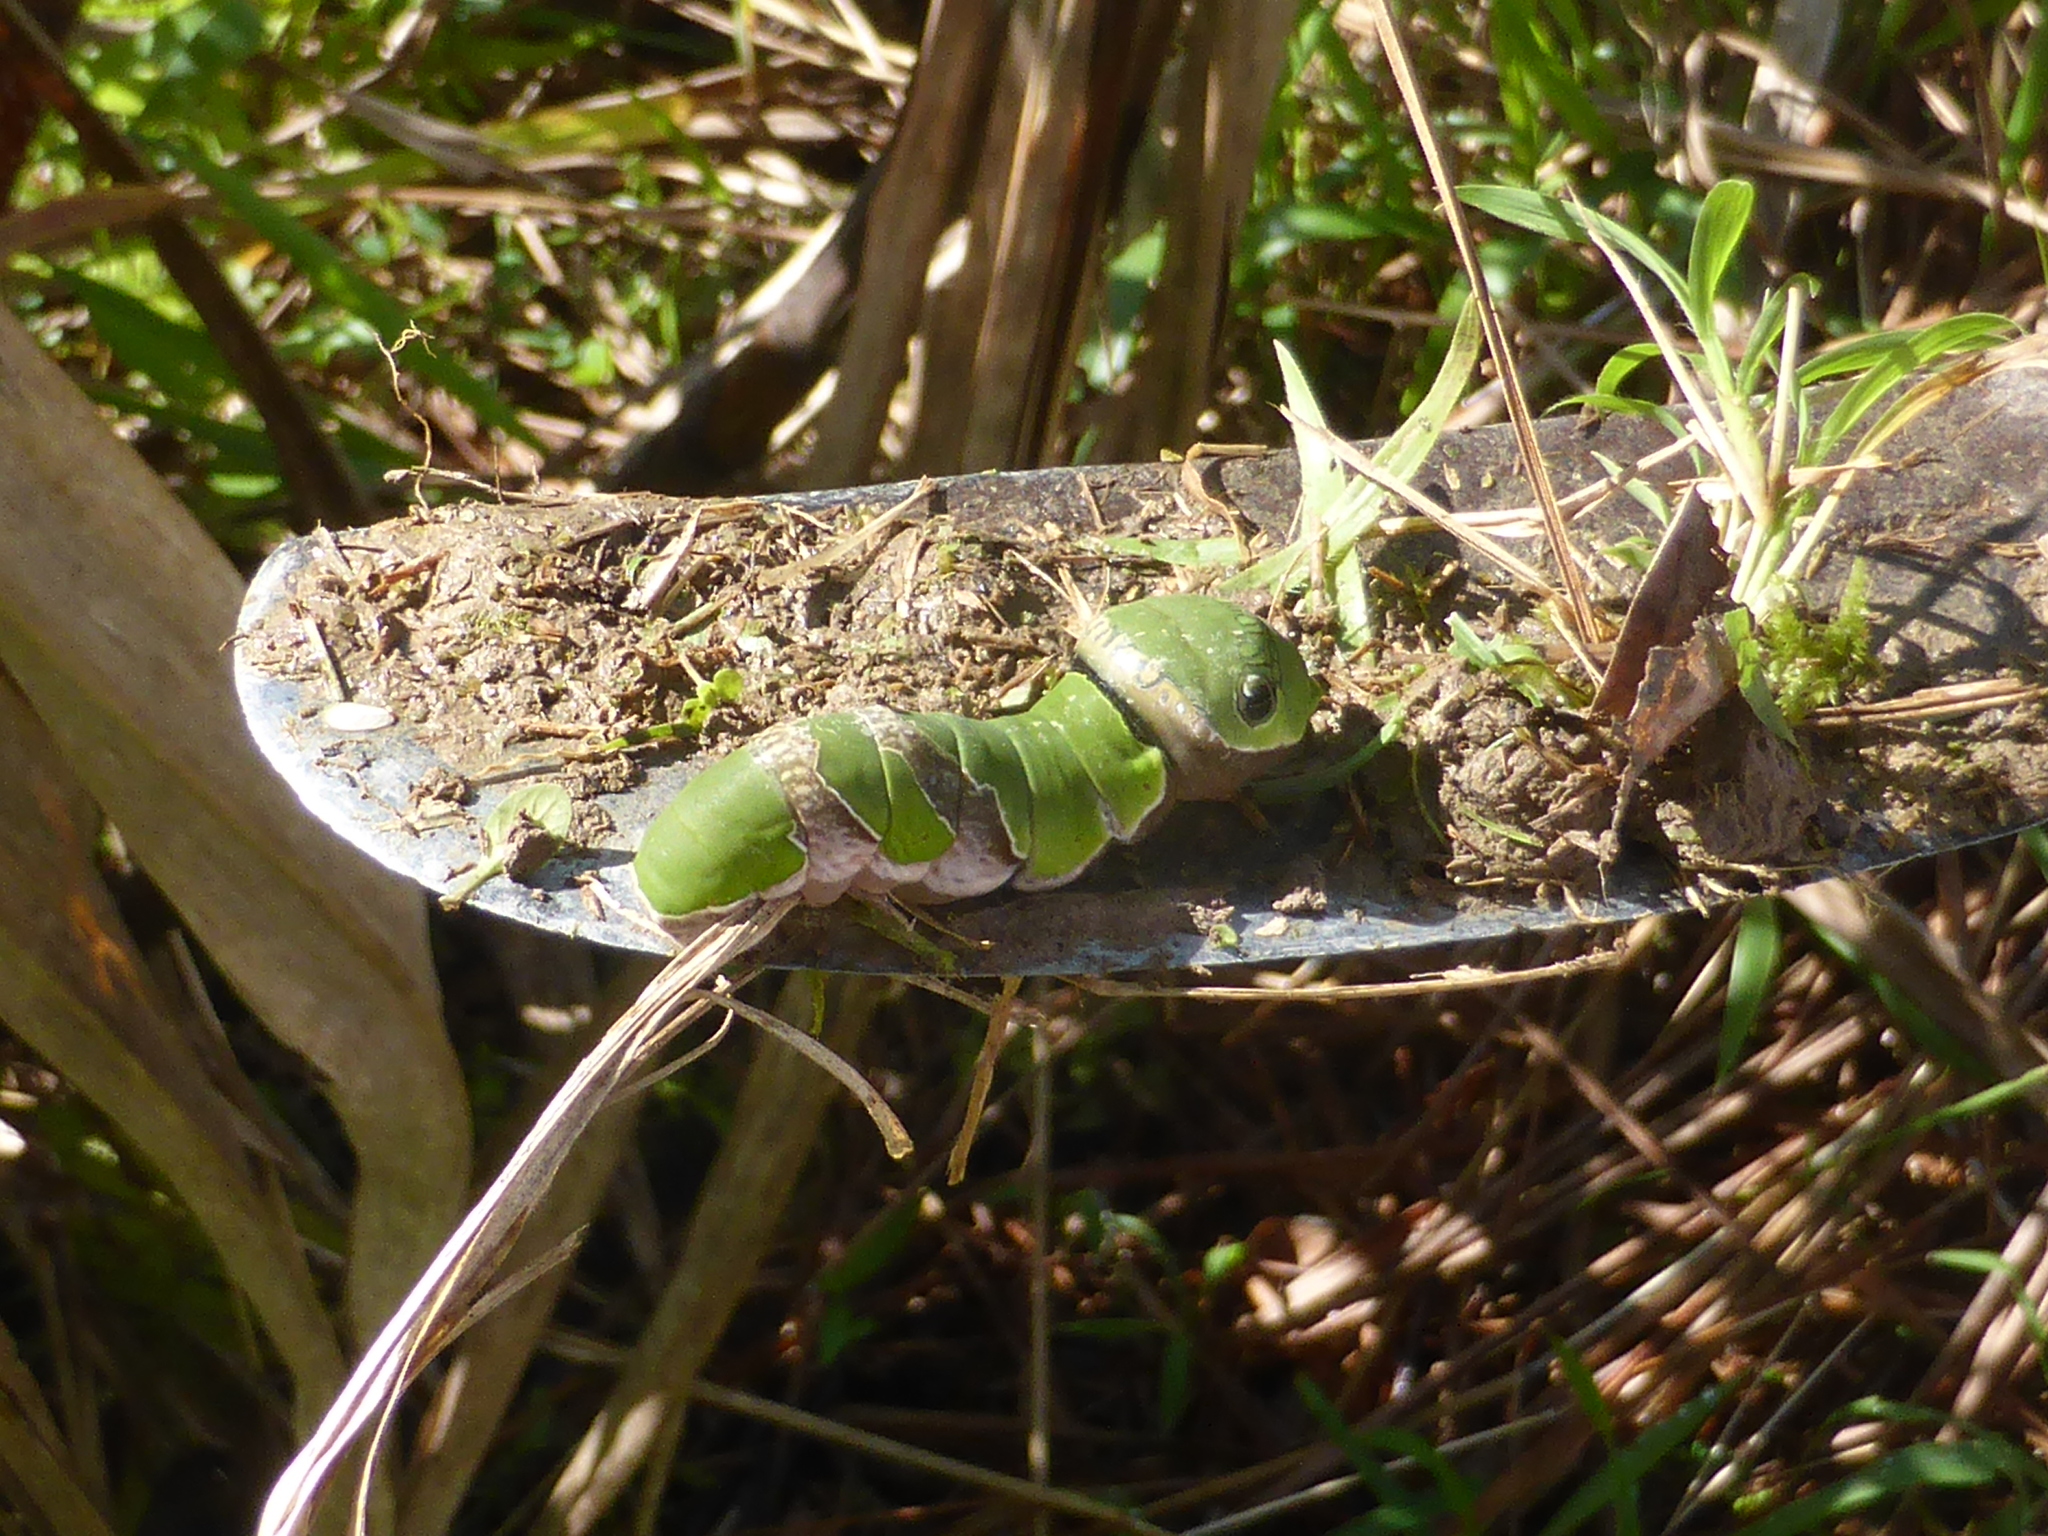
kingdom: Animalia
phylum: Arthropoda
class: Insecta
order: Lepidoptera
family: Papilionidae
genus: Papilio
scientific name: Papilio polytes
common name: Common mormon
